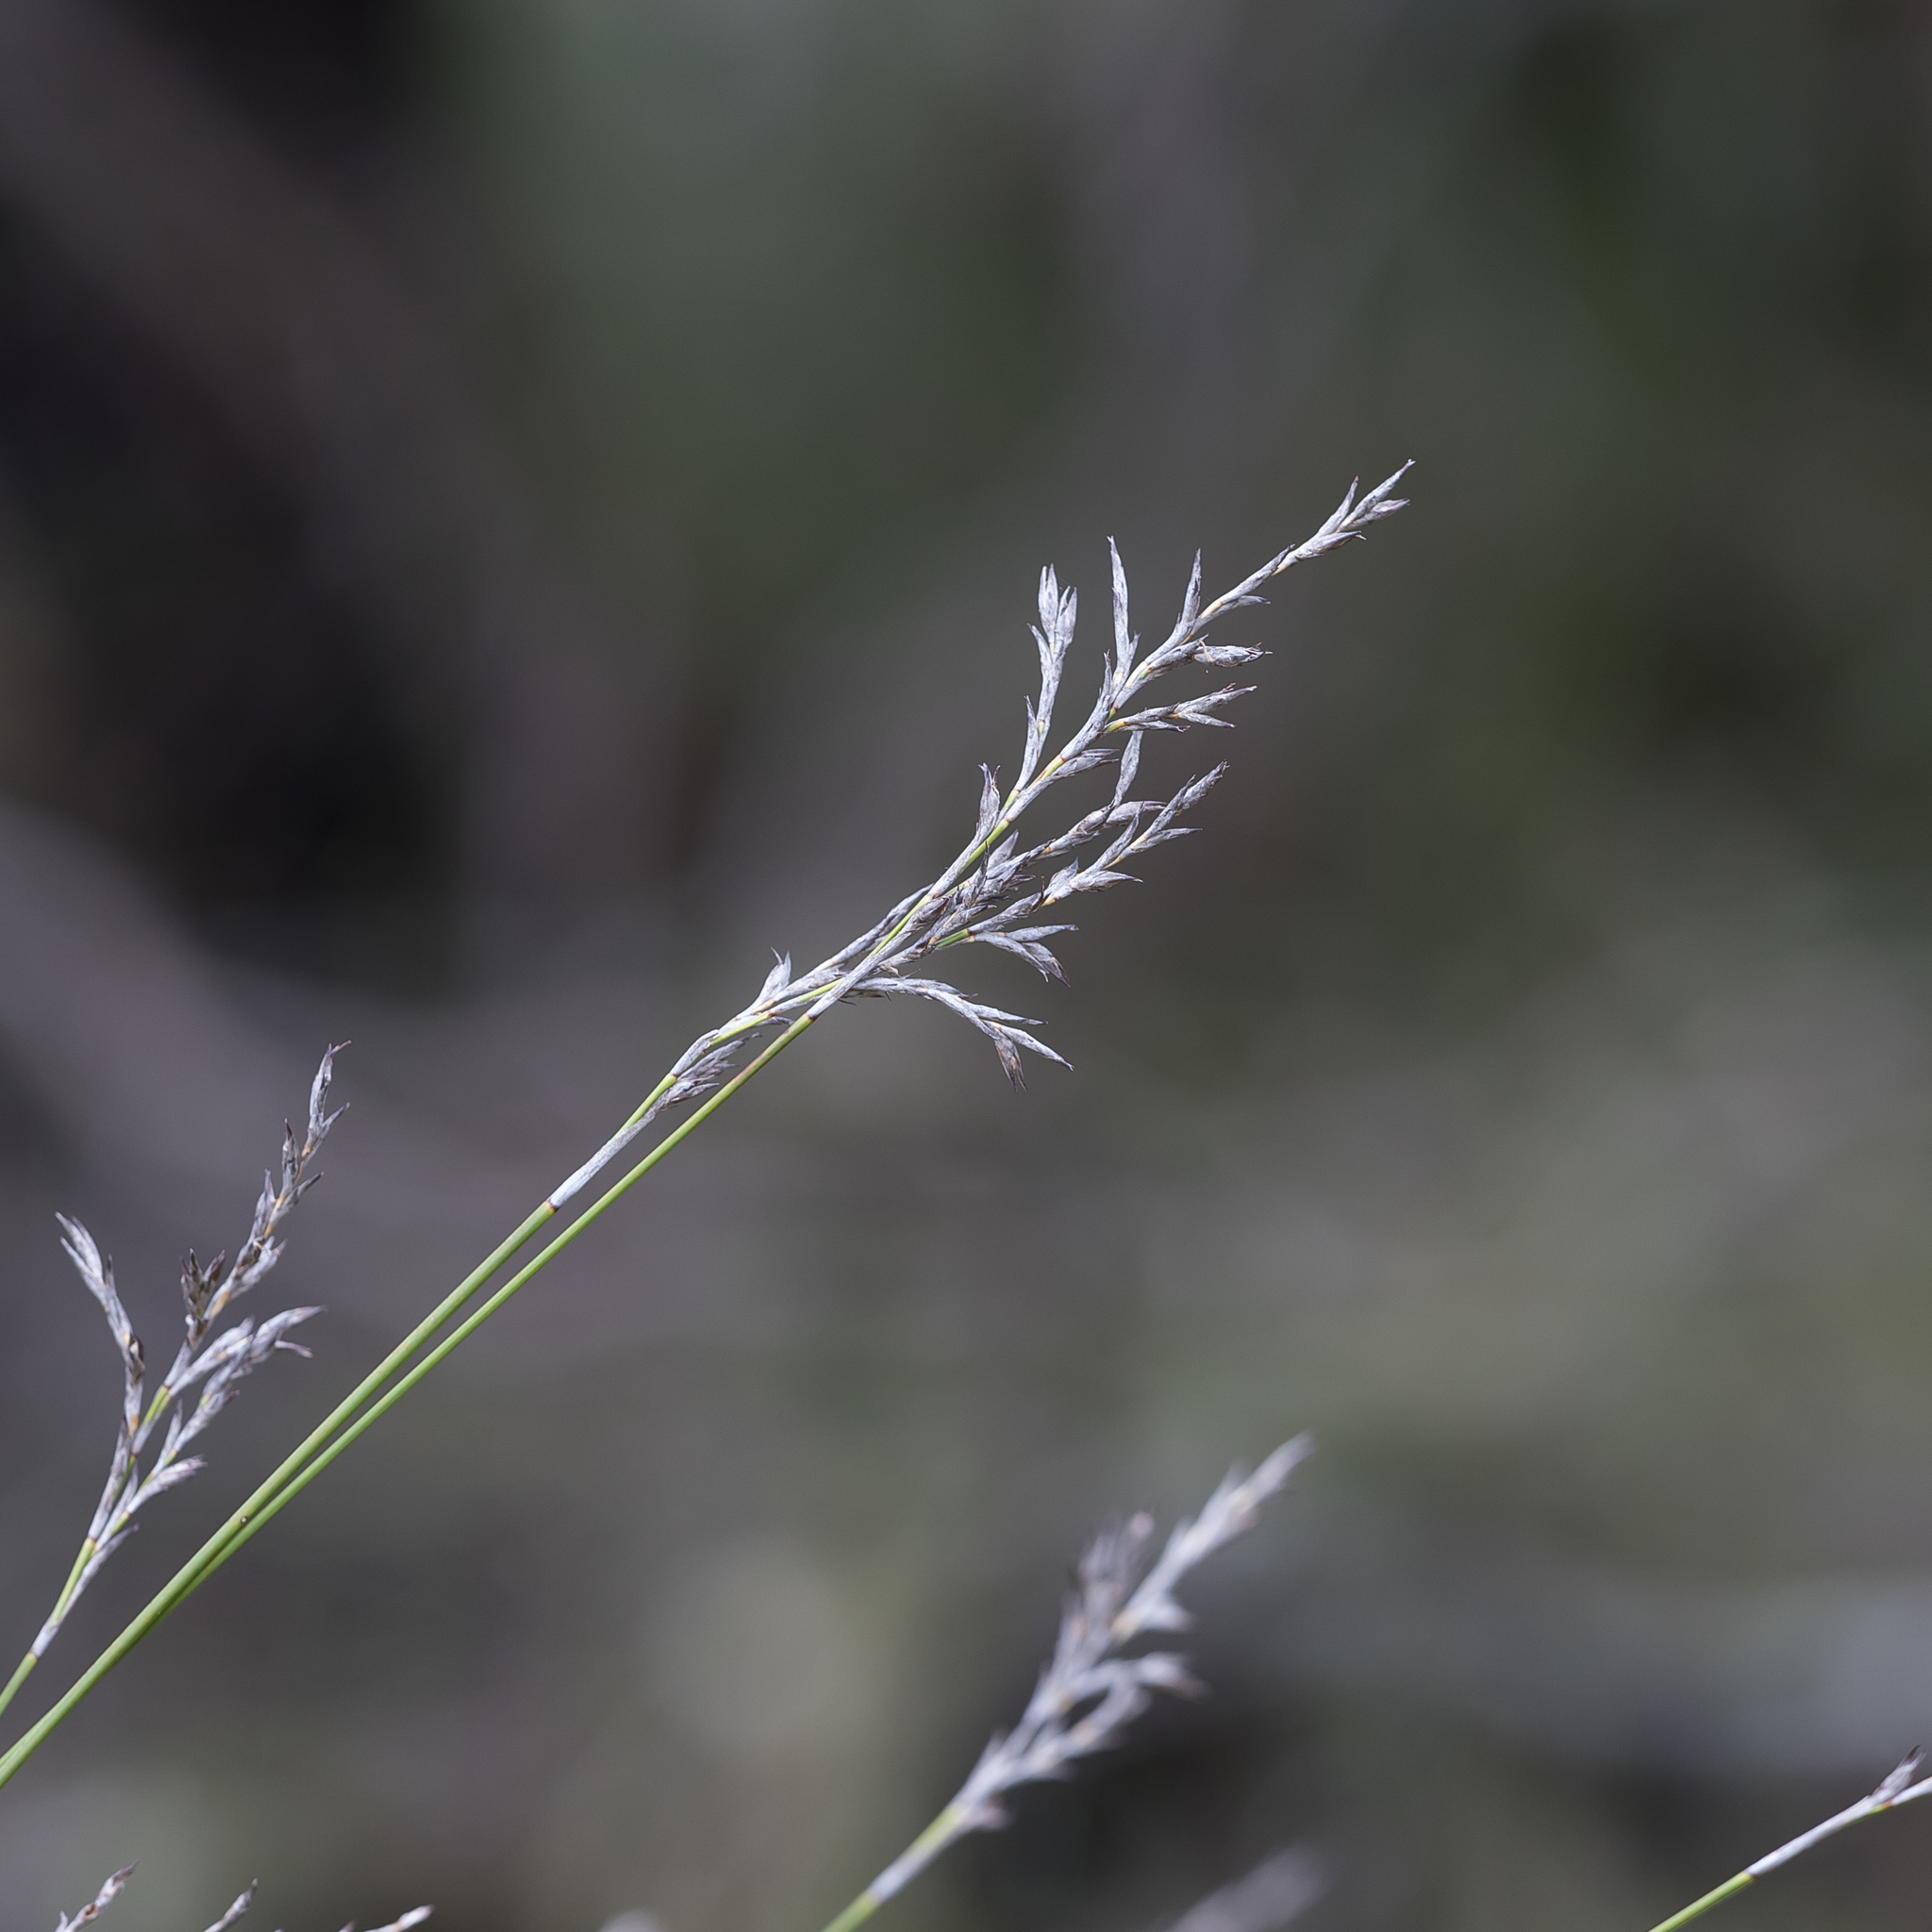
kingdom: Plantae
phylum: Tracheophyta
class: Liliopsida
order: Poales
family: Cyperaceae
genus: Lepidosperma
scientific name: Lepidosperma semiteres
